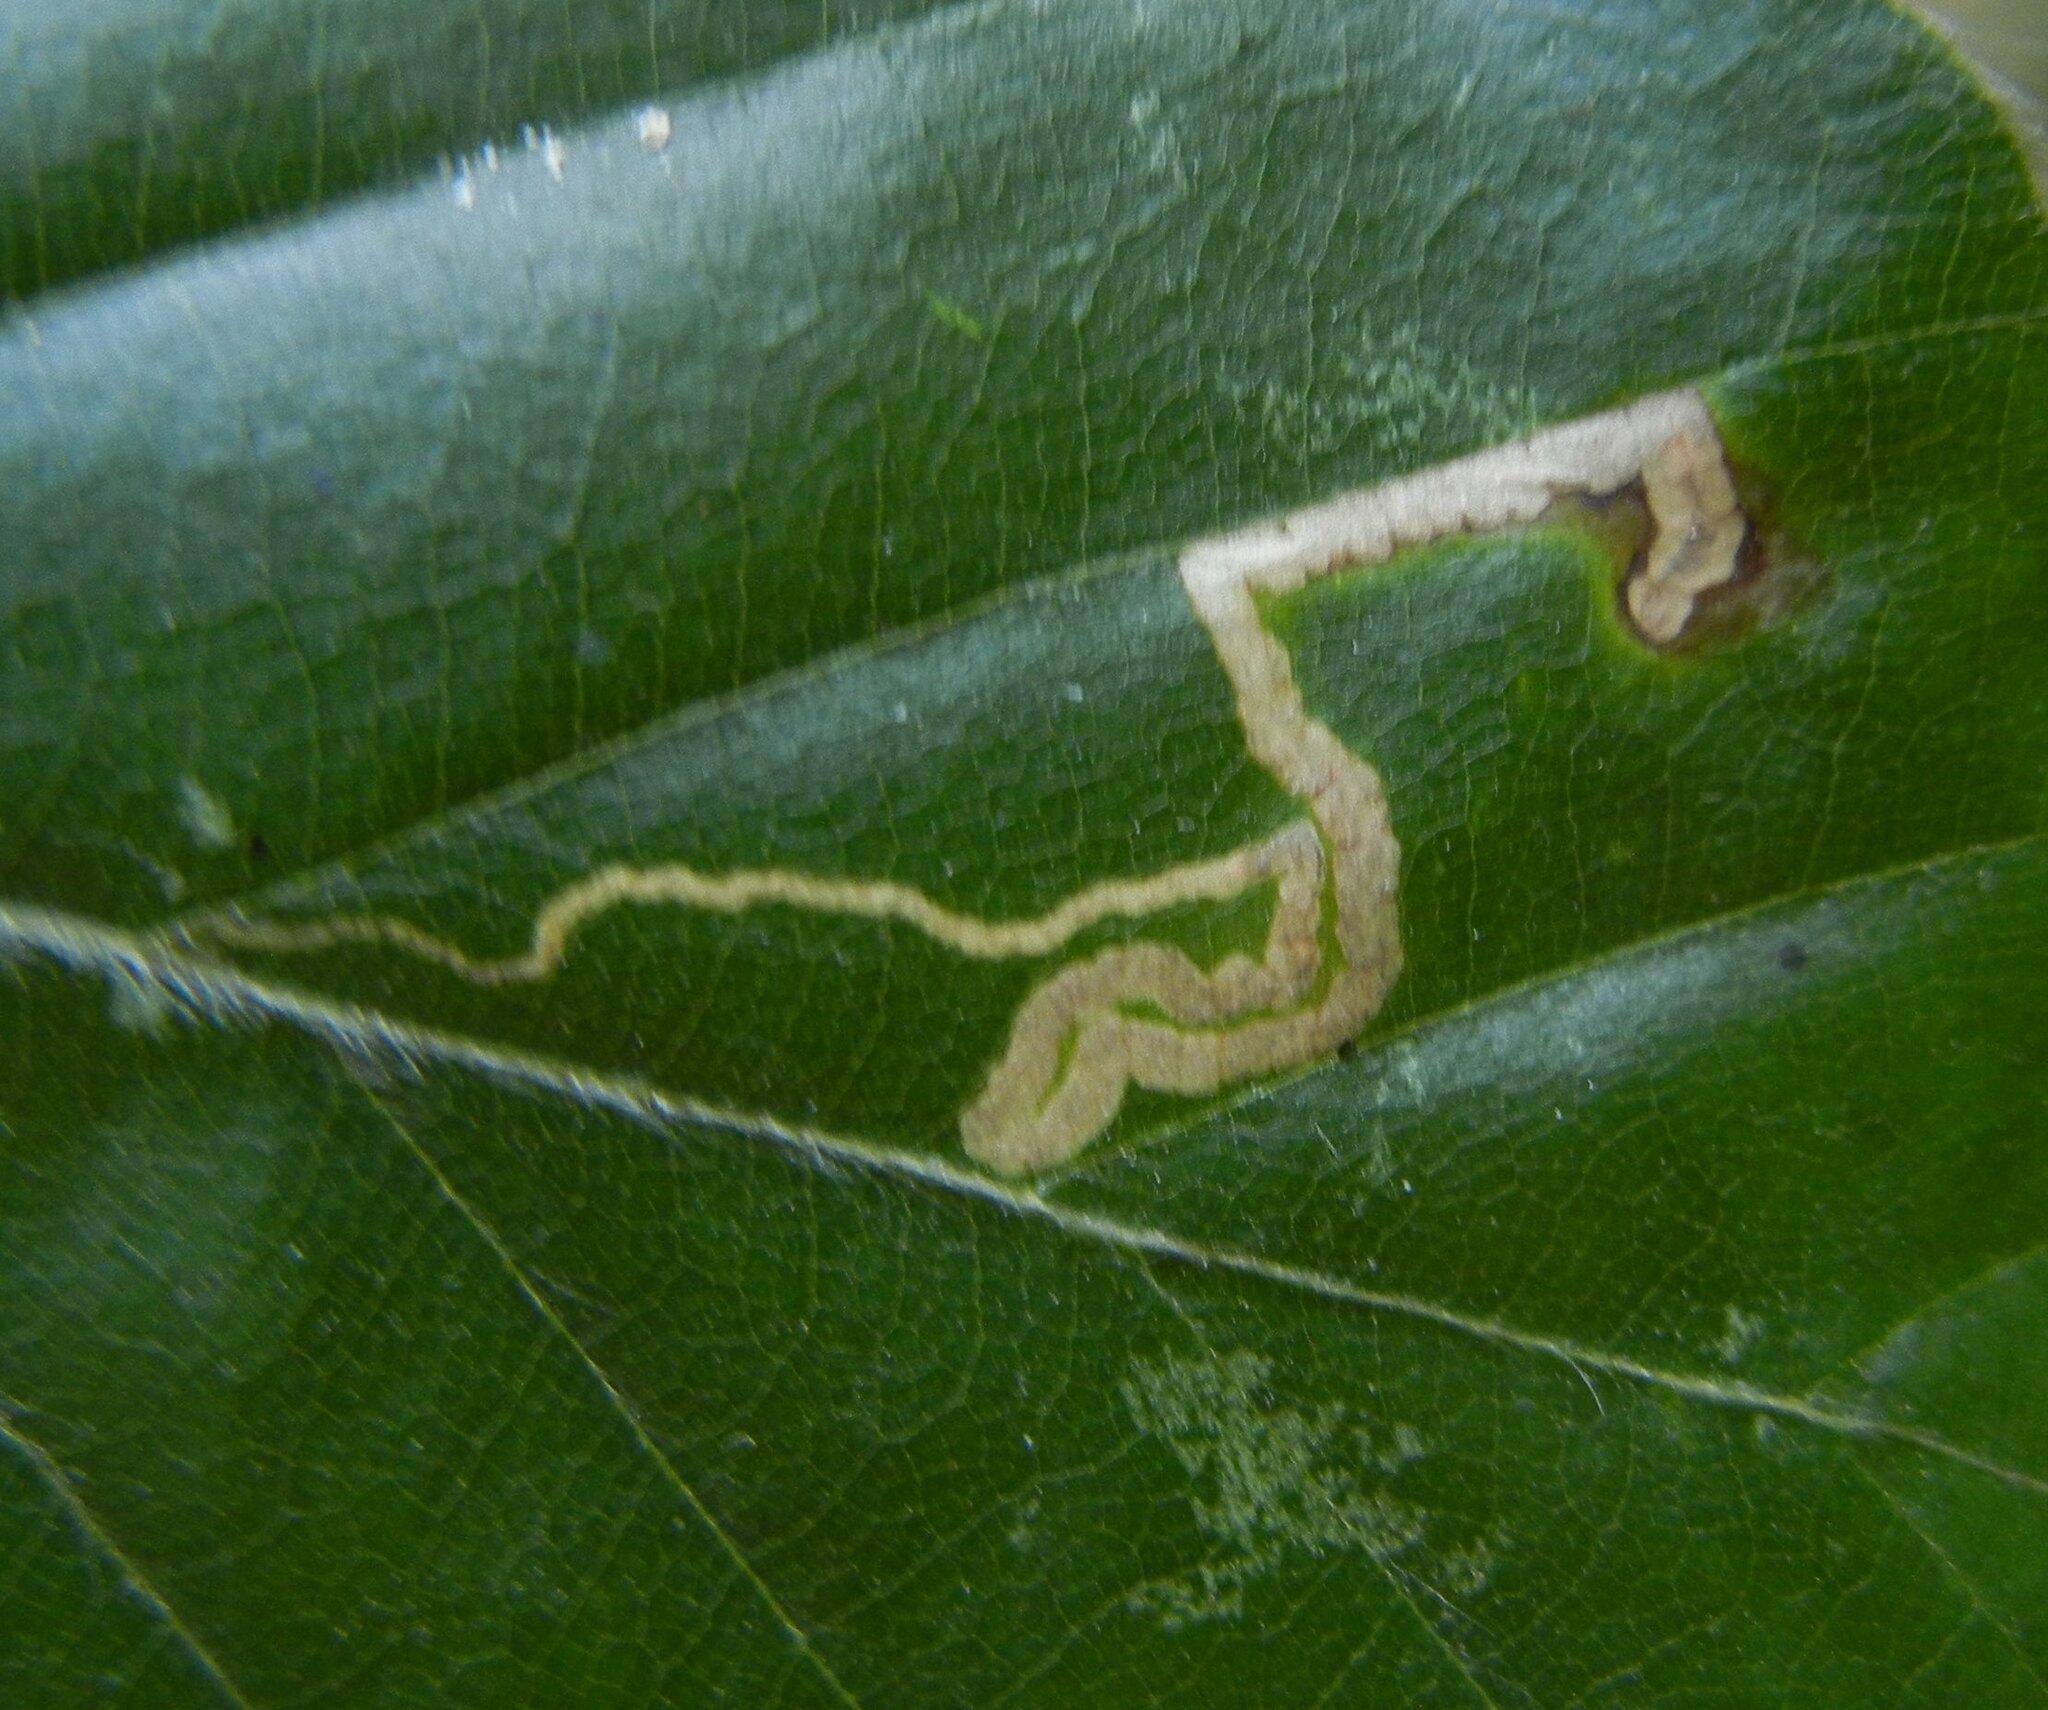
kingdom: Animalia
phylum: Arthropoda
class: Insecta
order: Lepidoptera
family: Nepticulidae
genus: Stigmella
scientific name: Stigmella tityrella
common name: Small beech pigmy
